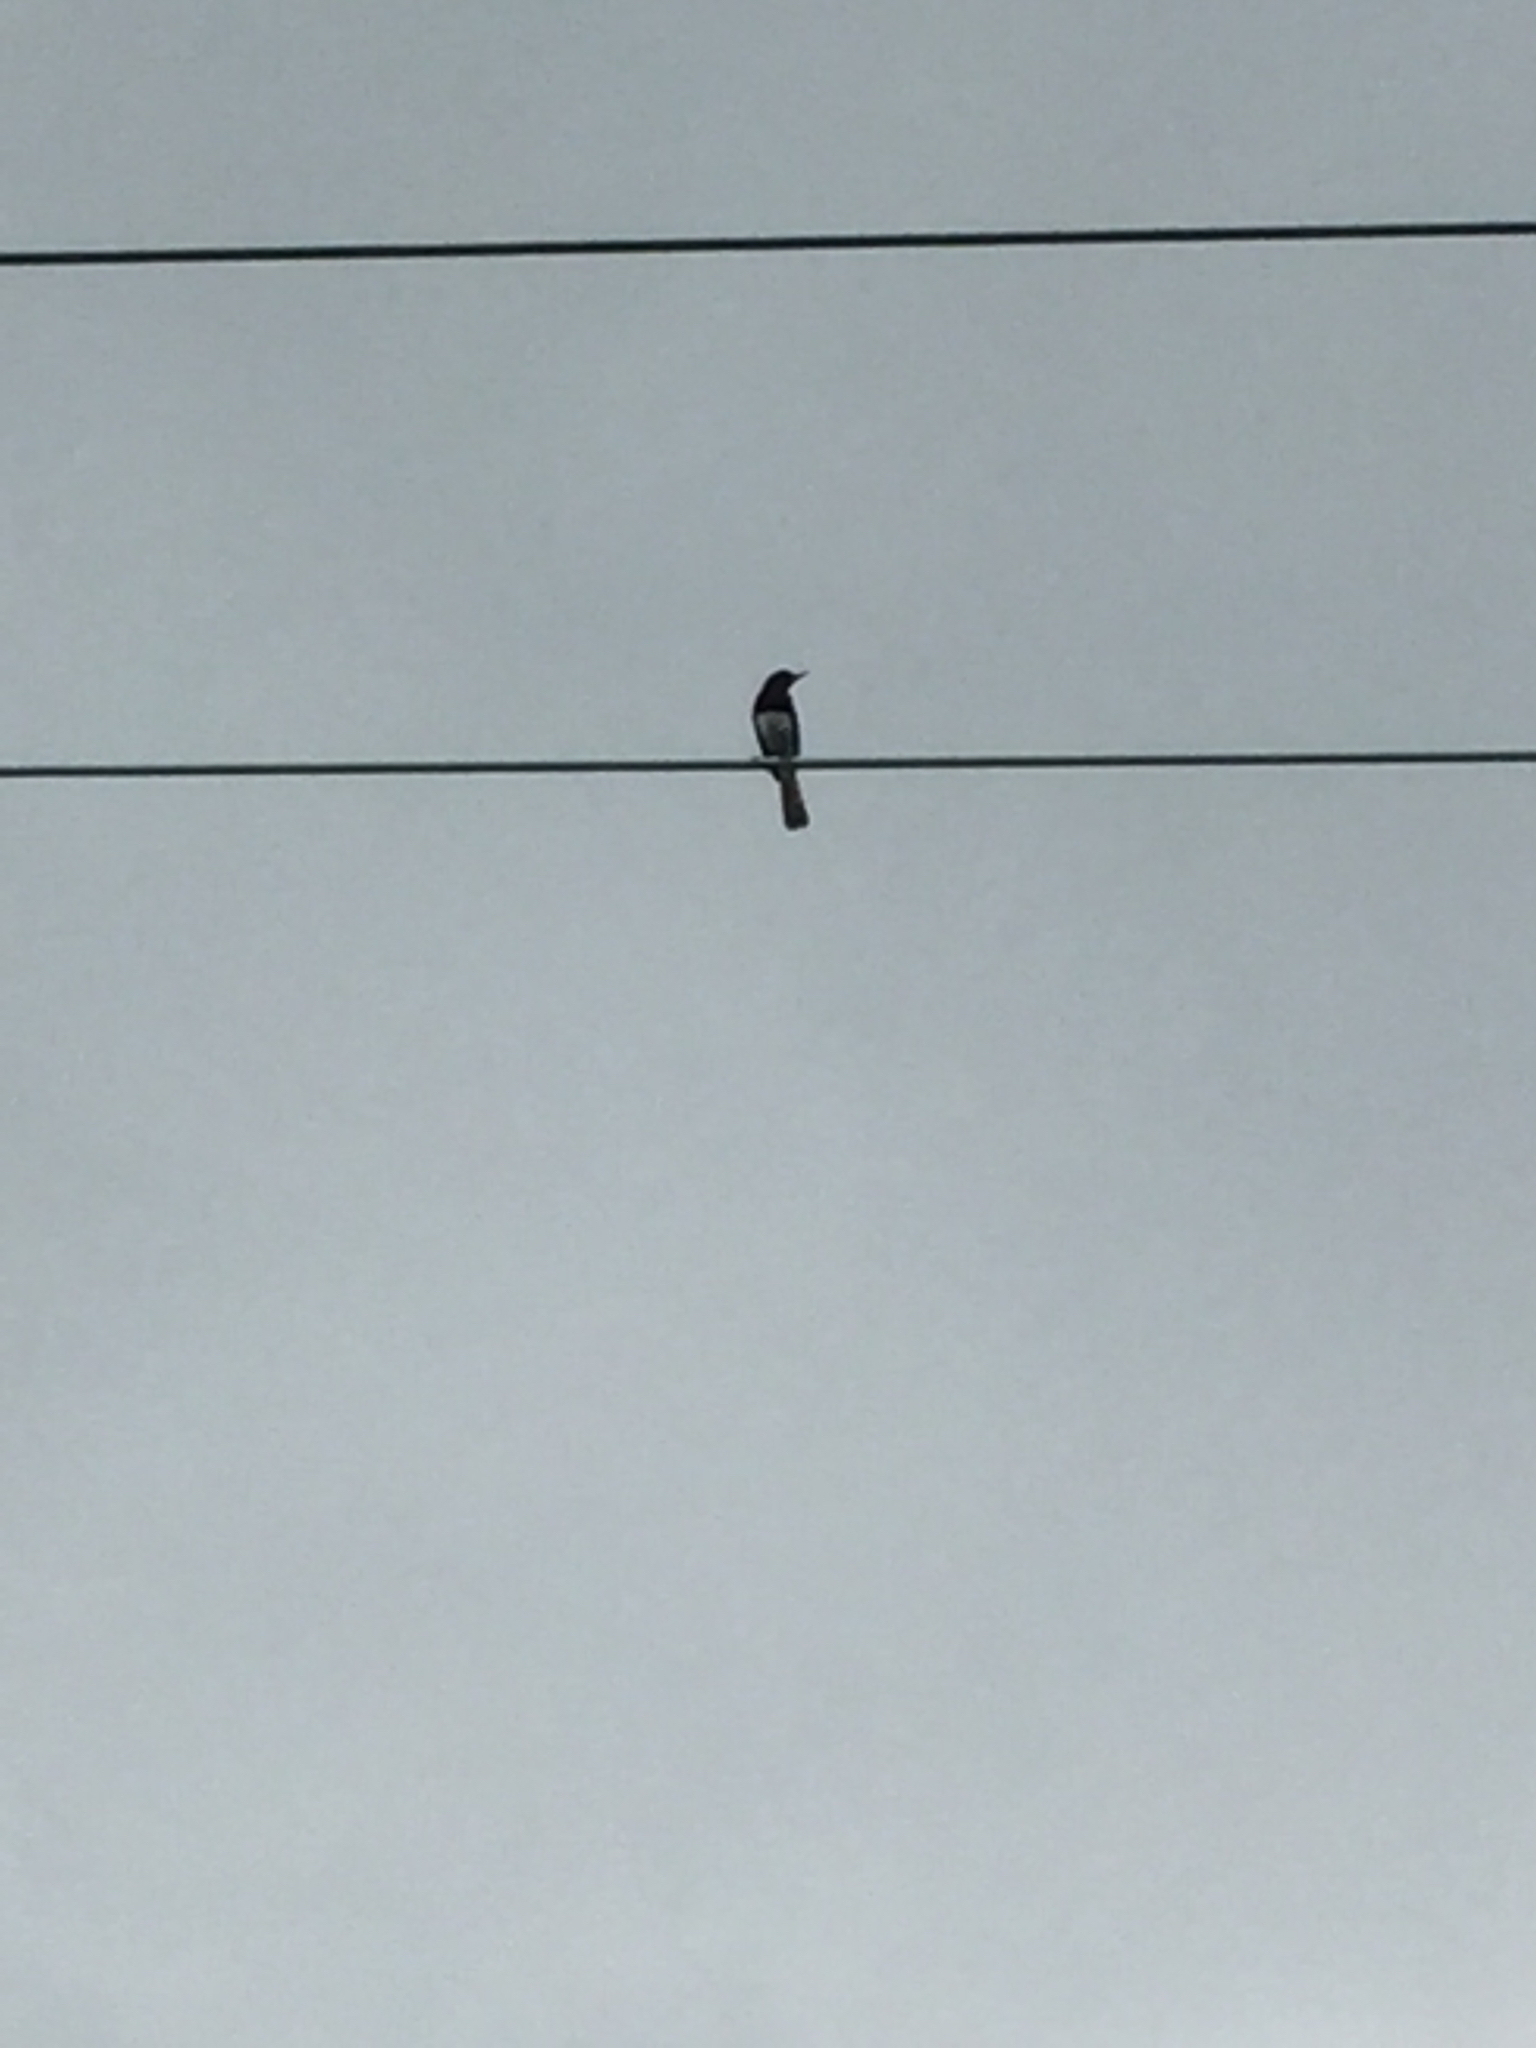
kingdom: Animalia
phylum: Chordata
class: Aves
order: Passeriformes
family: Muscicapidae
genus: Copsychus
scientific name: Copsychus saularis
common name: Oriental magpie-robin
